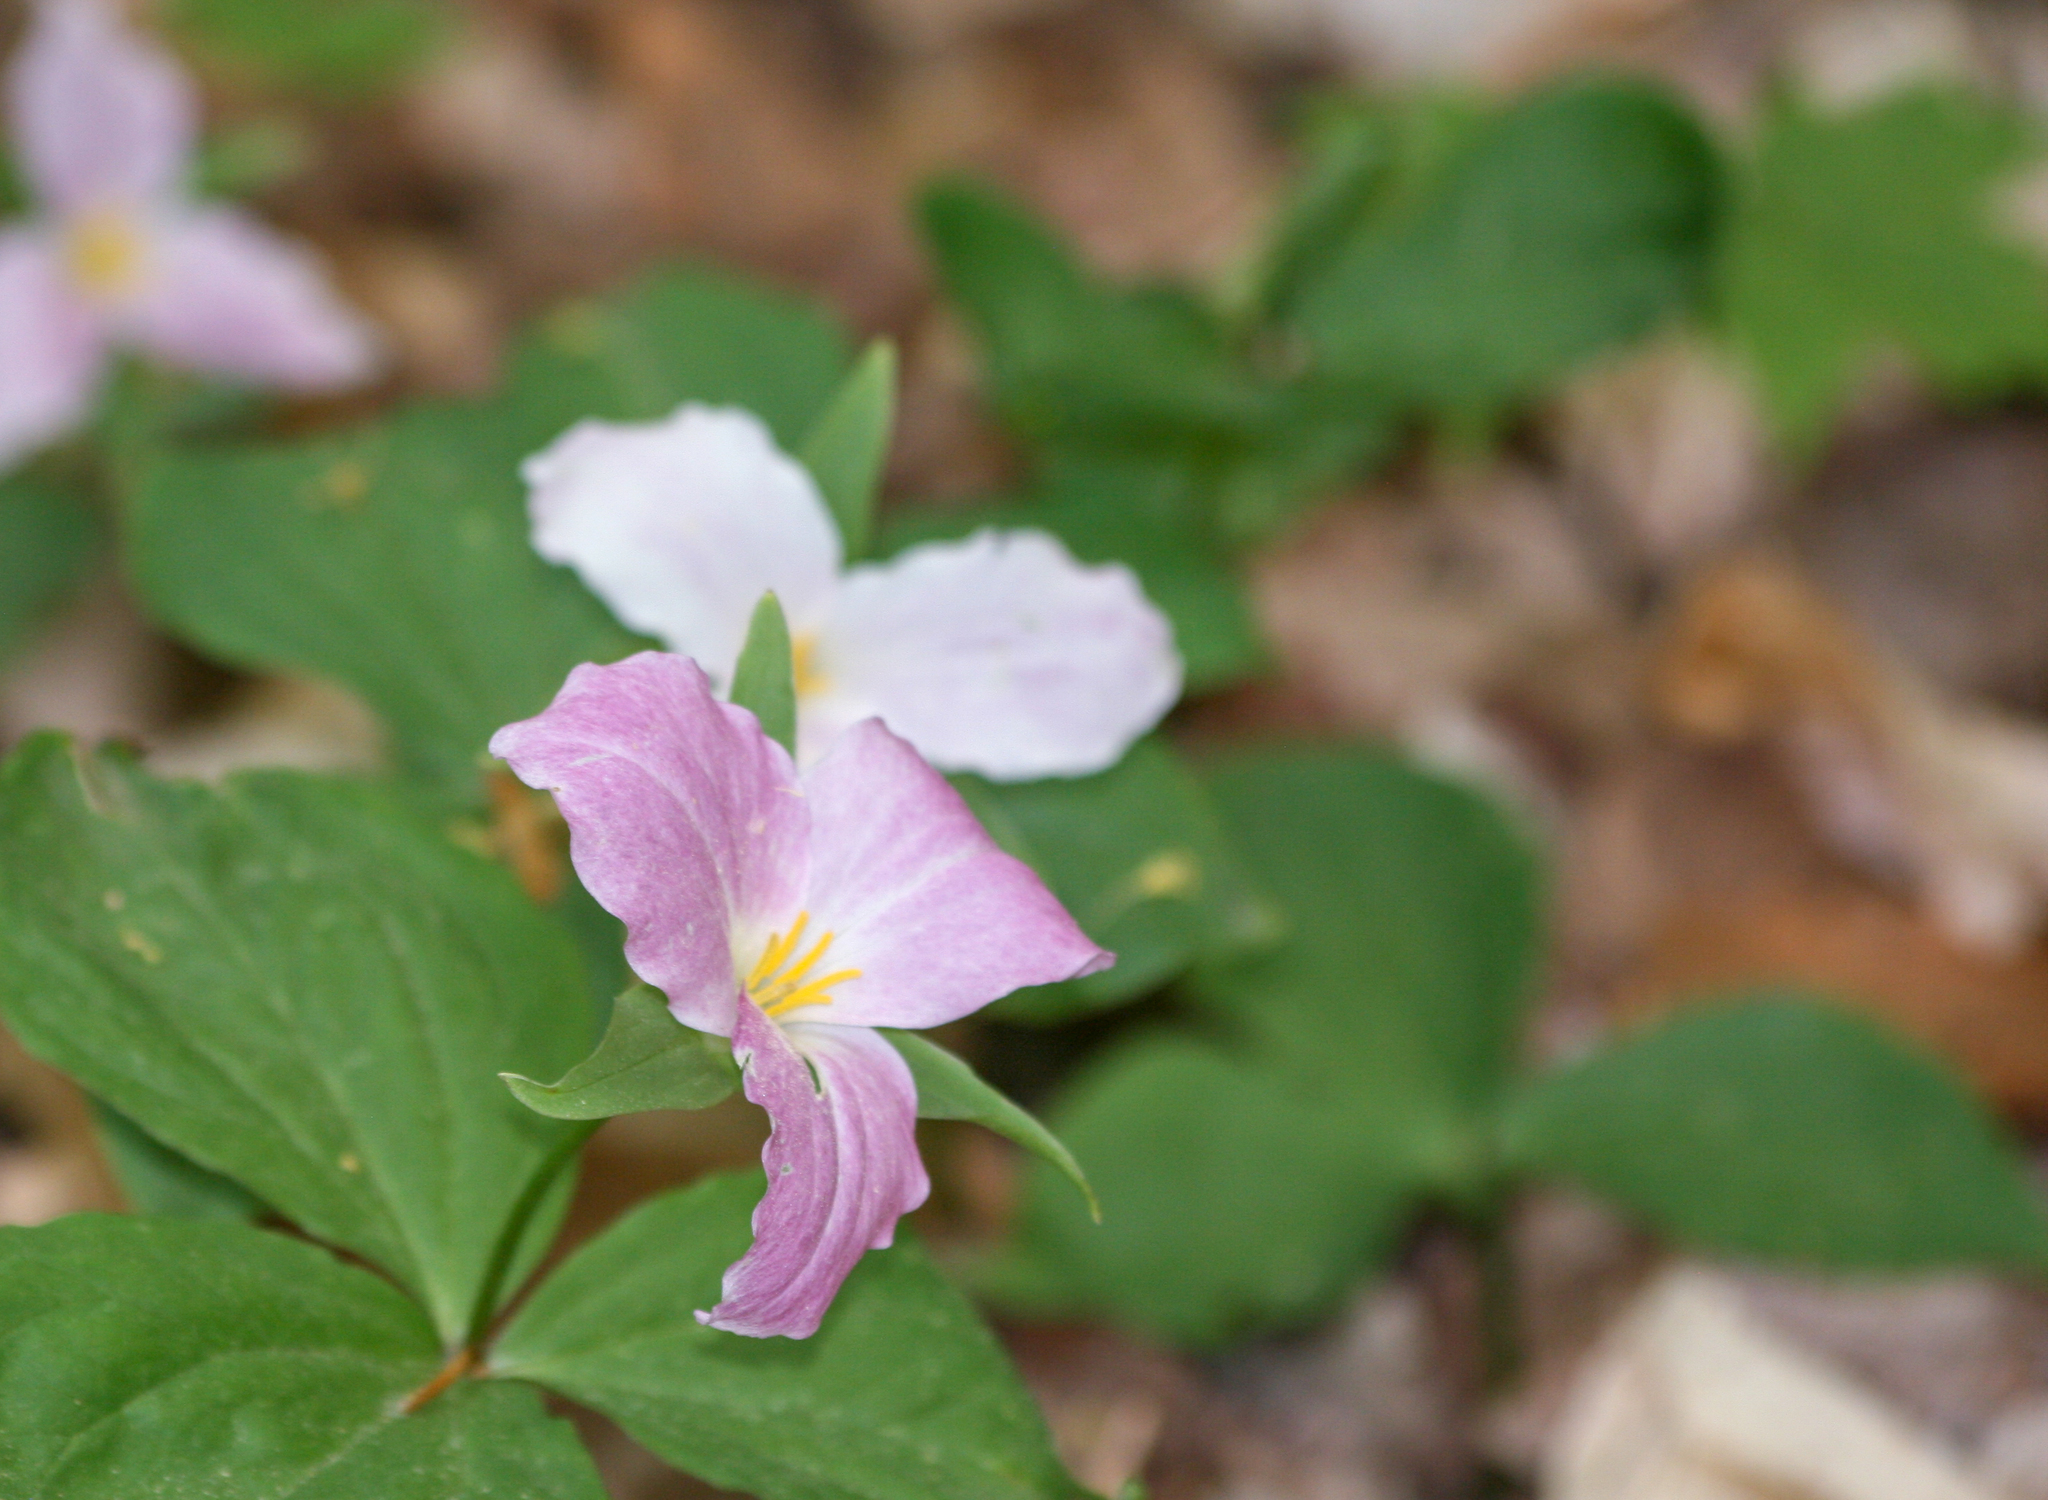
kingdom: Plantae
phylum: Tracheophyta
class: Liliopsida
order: Liliales
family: Melanthiaceae
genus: Trillium
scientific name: Trillium grandiflorum
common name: Great white trillium
